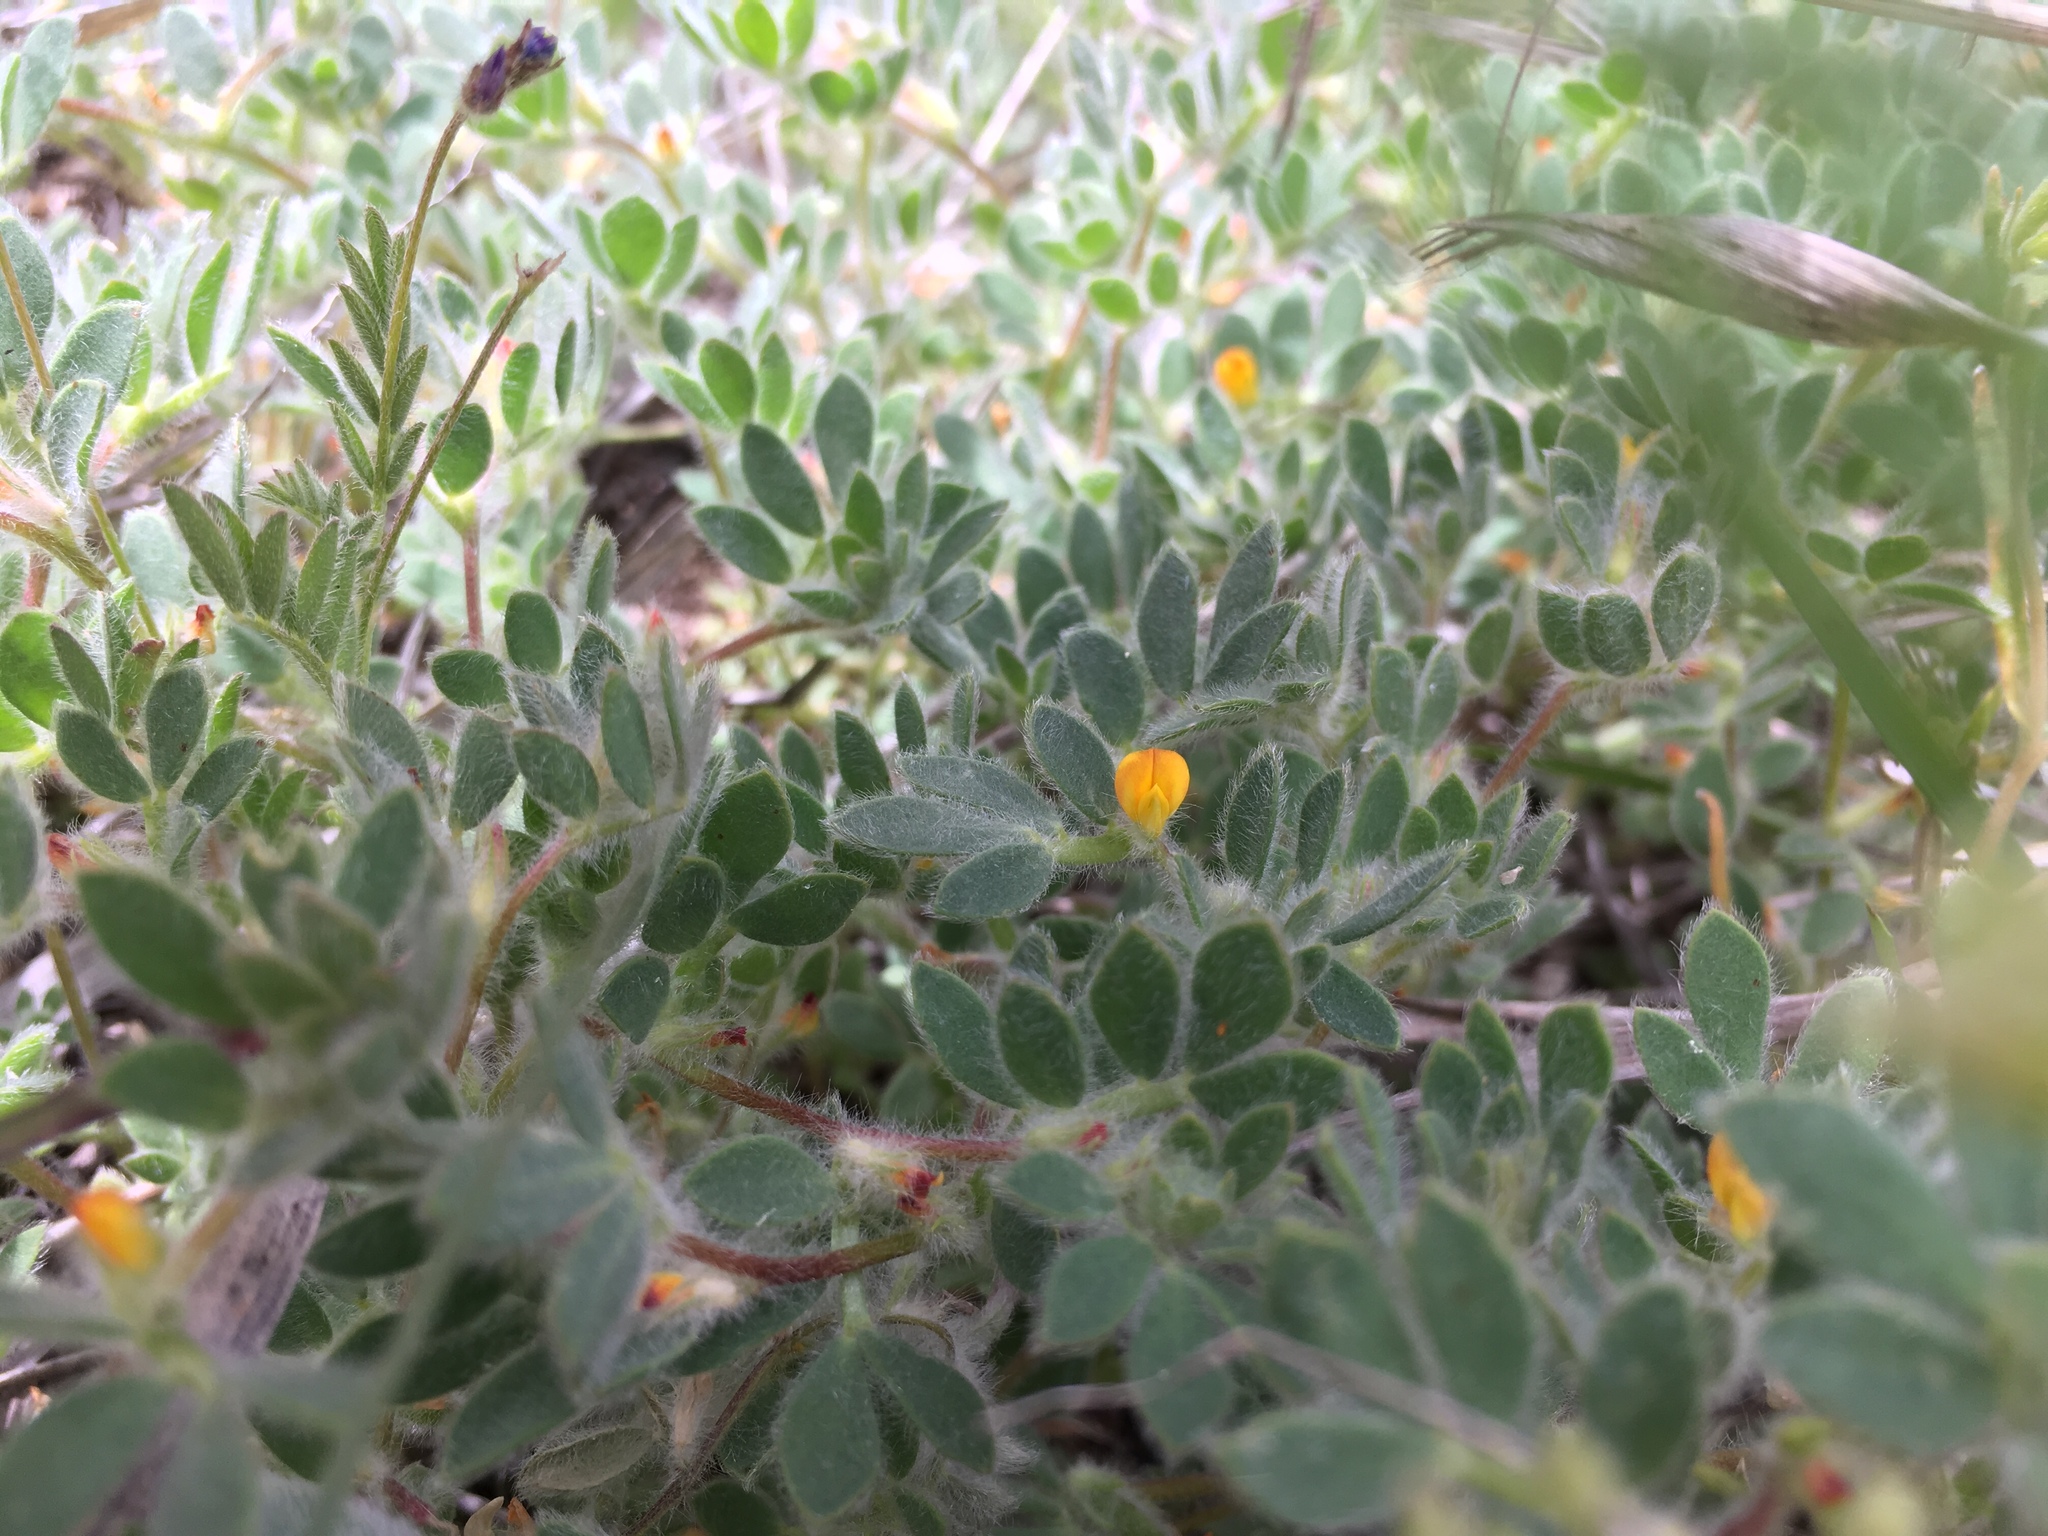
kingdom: Plantae
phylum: Tracheophyta
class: Magnoliopsida
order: Fabales
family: Fabaceae
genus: Acmispon
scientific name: Acmispon brachycarpus
